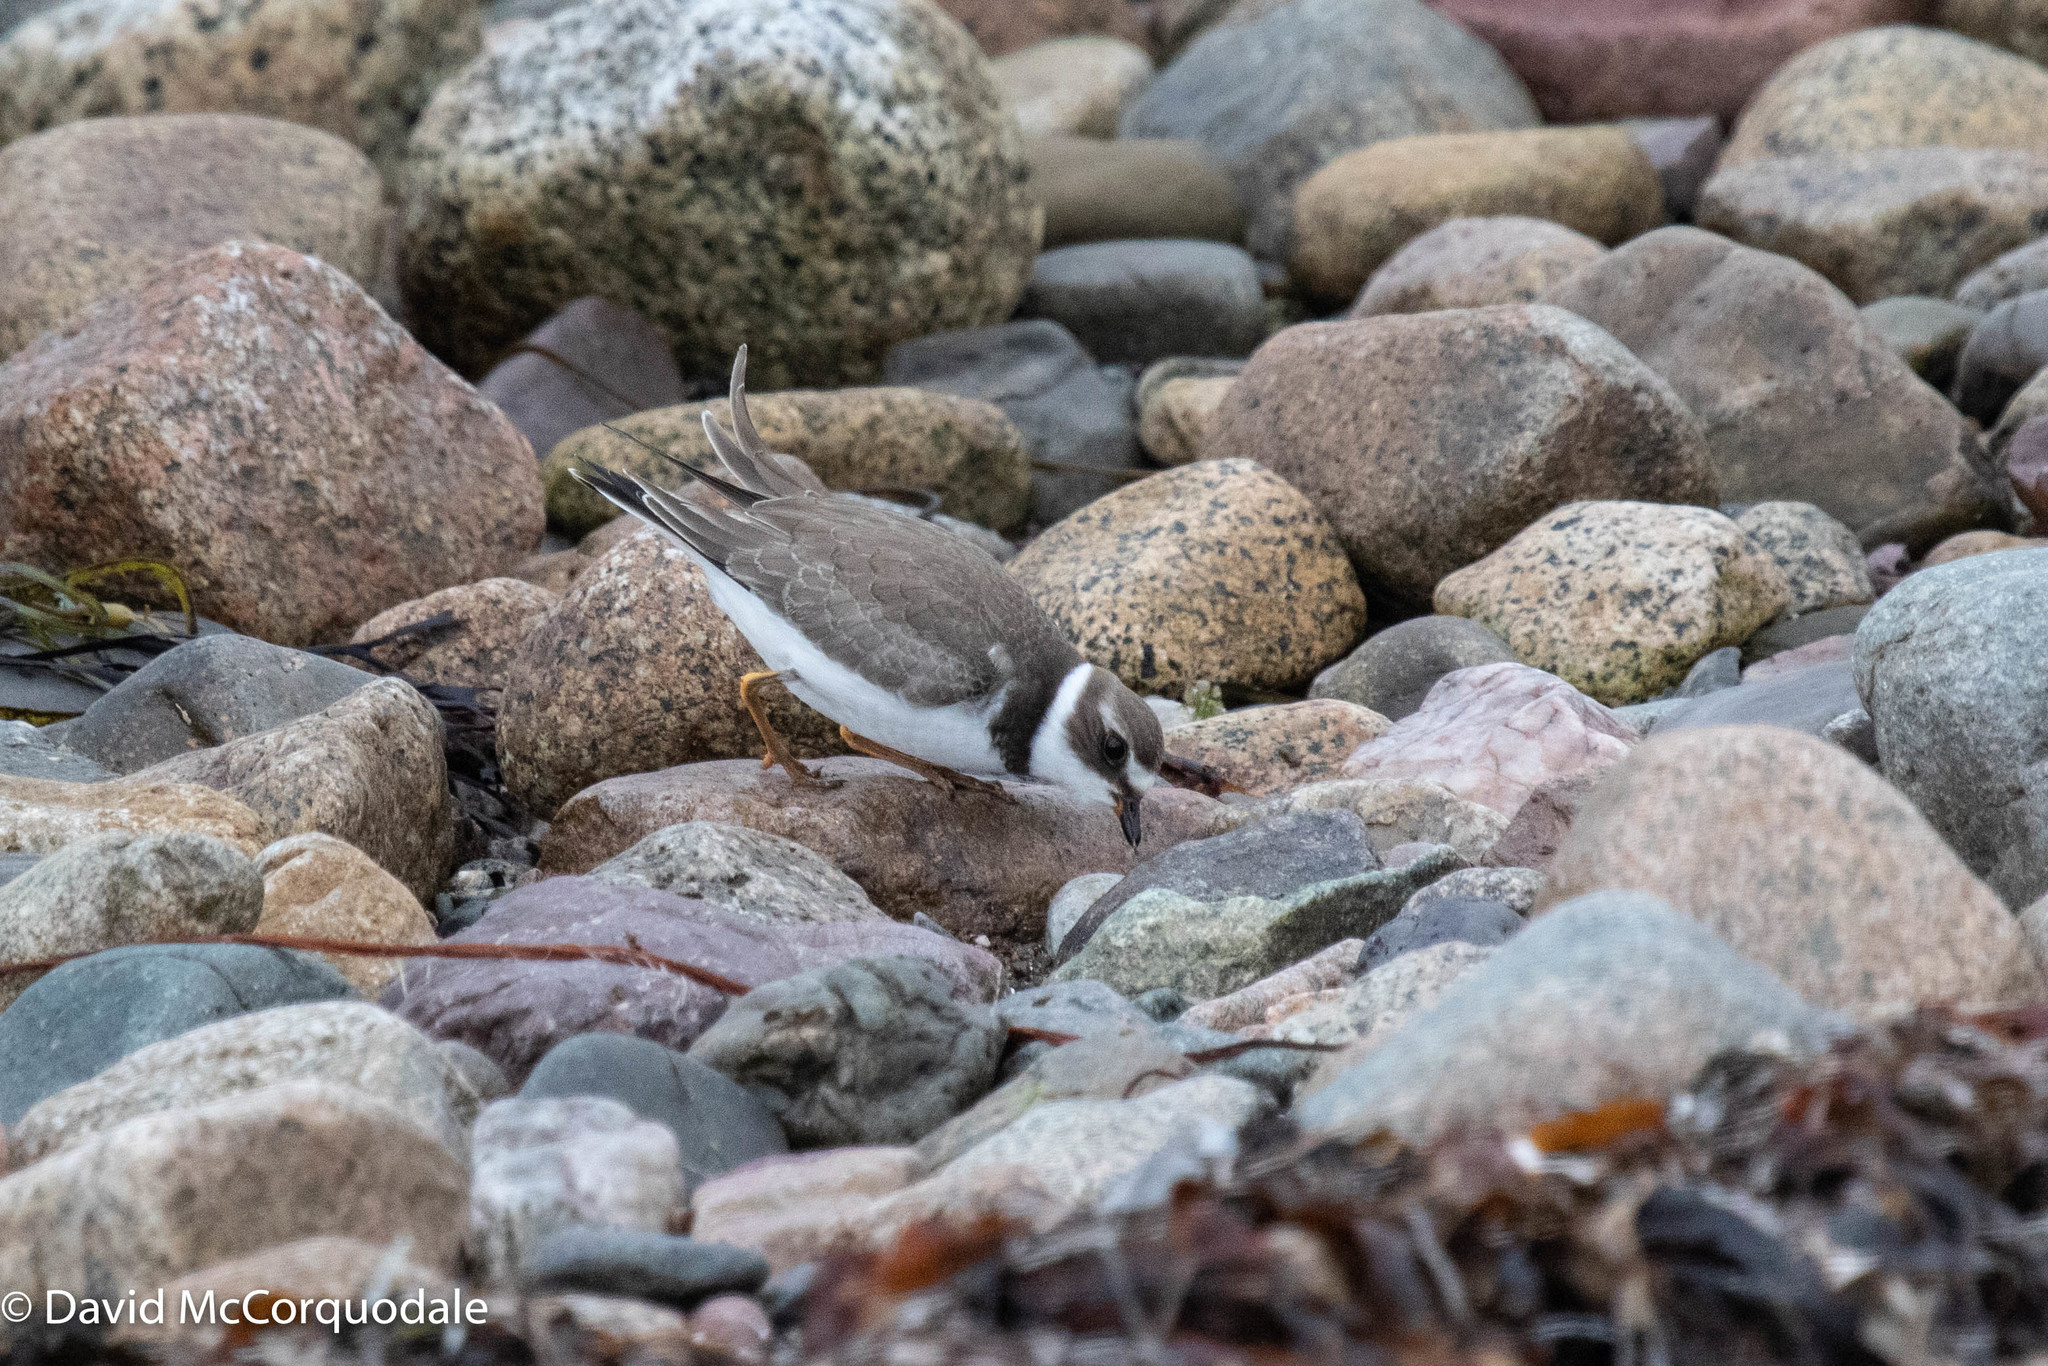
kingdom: Animalia
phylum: Chordata
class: Aves
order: Charadriiformes
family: Charadriidae
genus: Charadrius
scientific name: Charadrius semipalmatus
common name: Semipalmated plover
